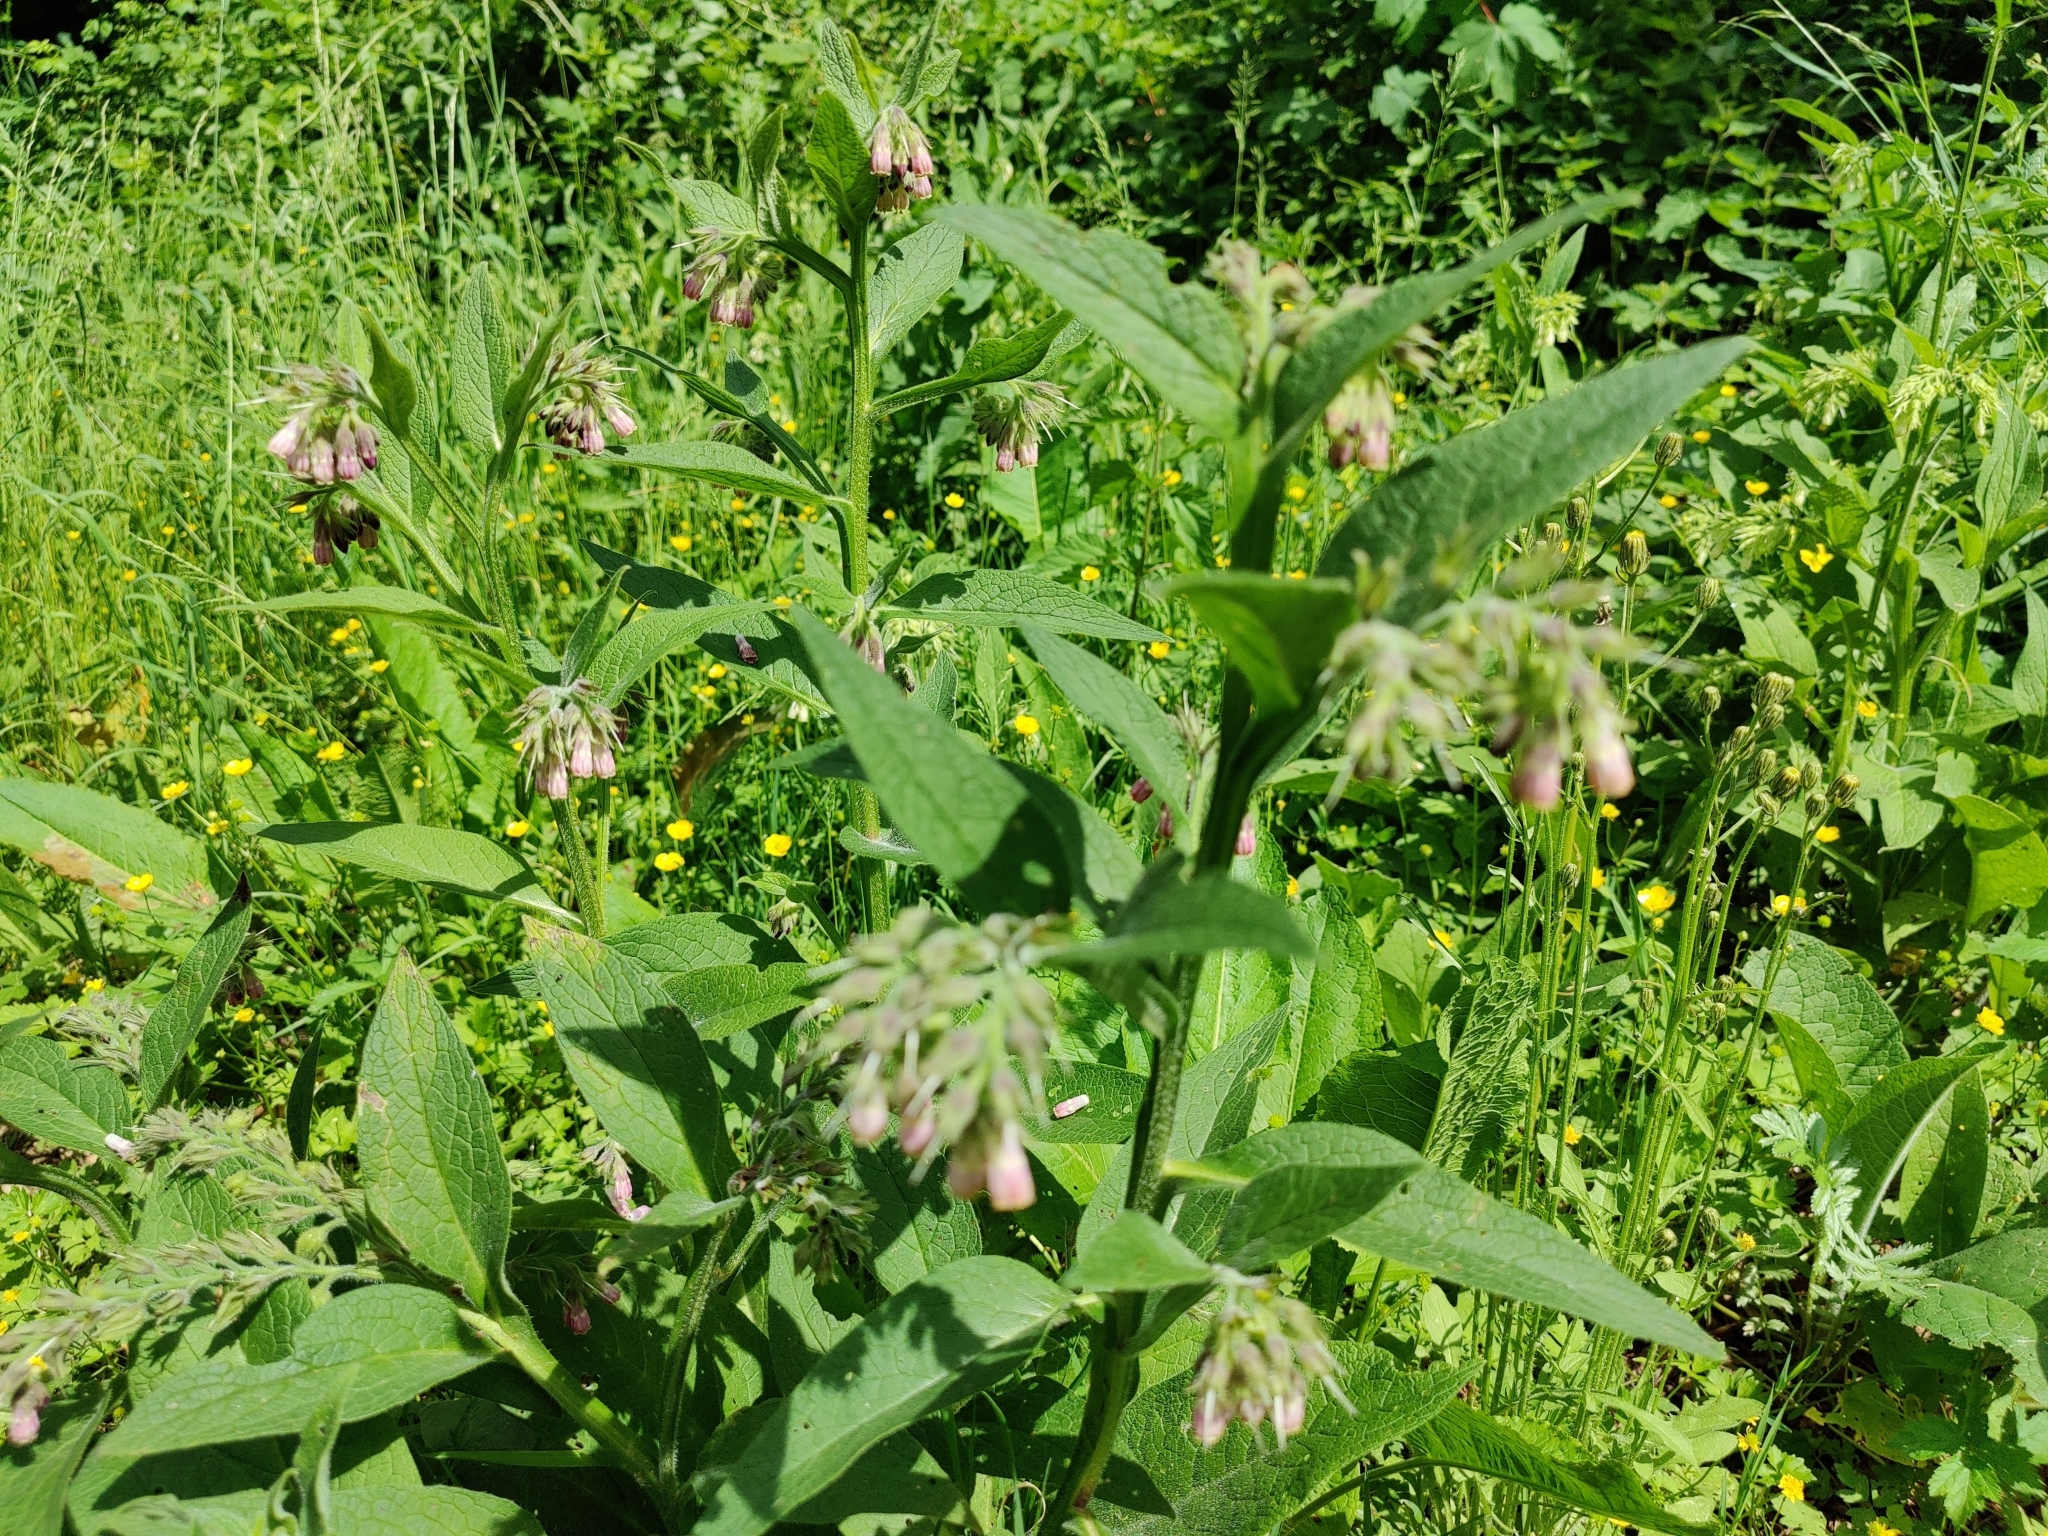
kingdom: Plantae
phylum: Tracheophyta
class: Magnoliopsida
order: Boraginales
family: Boraginaceae
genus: Symphytum
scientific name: Symphytum officinale
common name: Common comfrey
